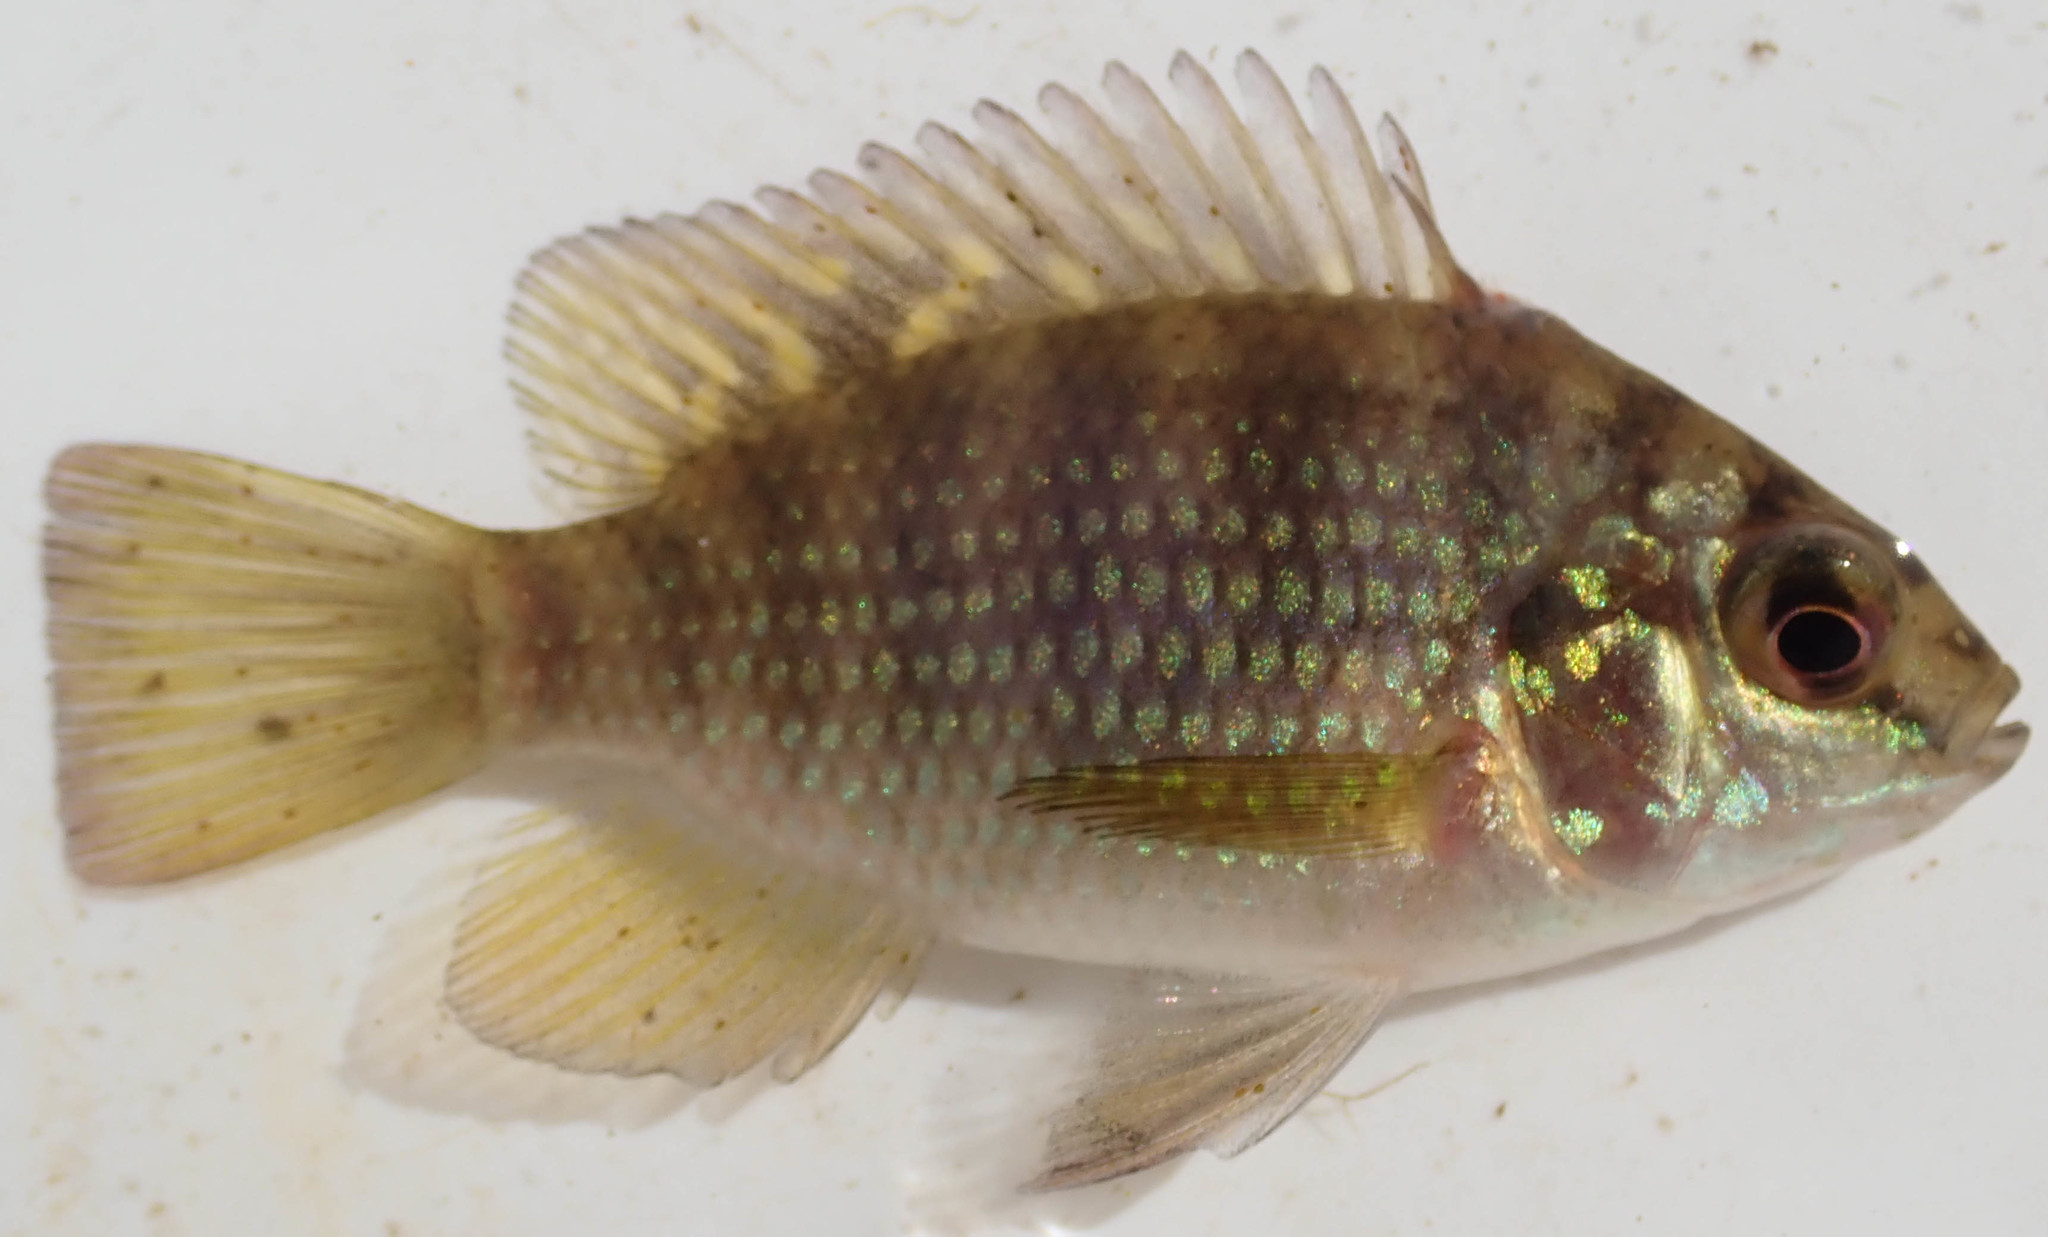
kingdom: Animalia
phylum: Chordata
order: Perciformes
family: Cichlidae
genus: Tilapia
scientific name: Tilapia sparrmanii
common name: Banded tilapia
